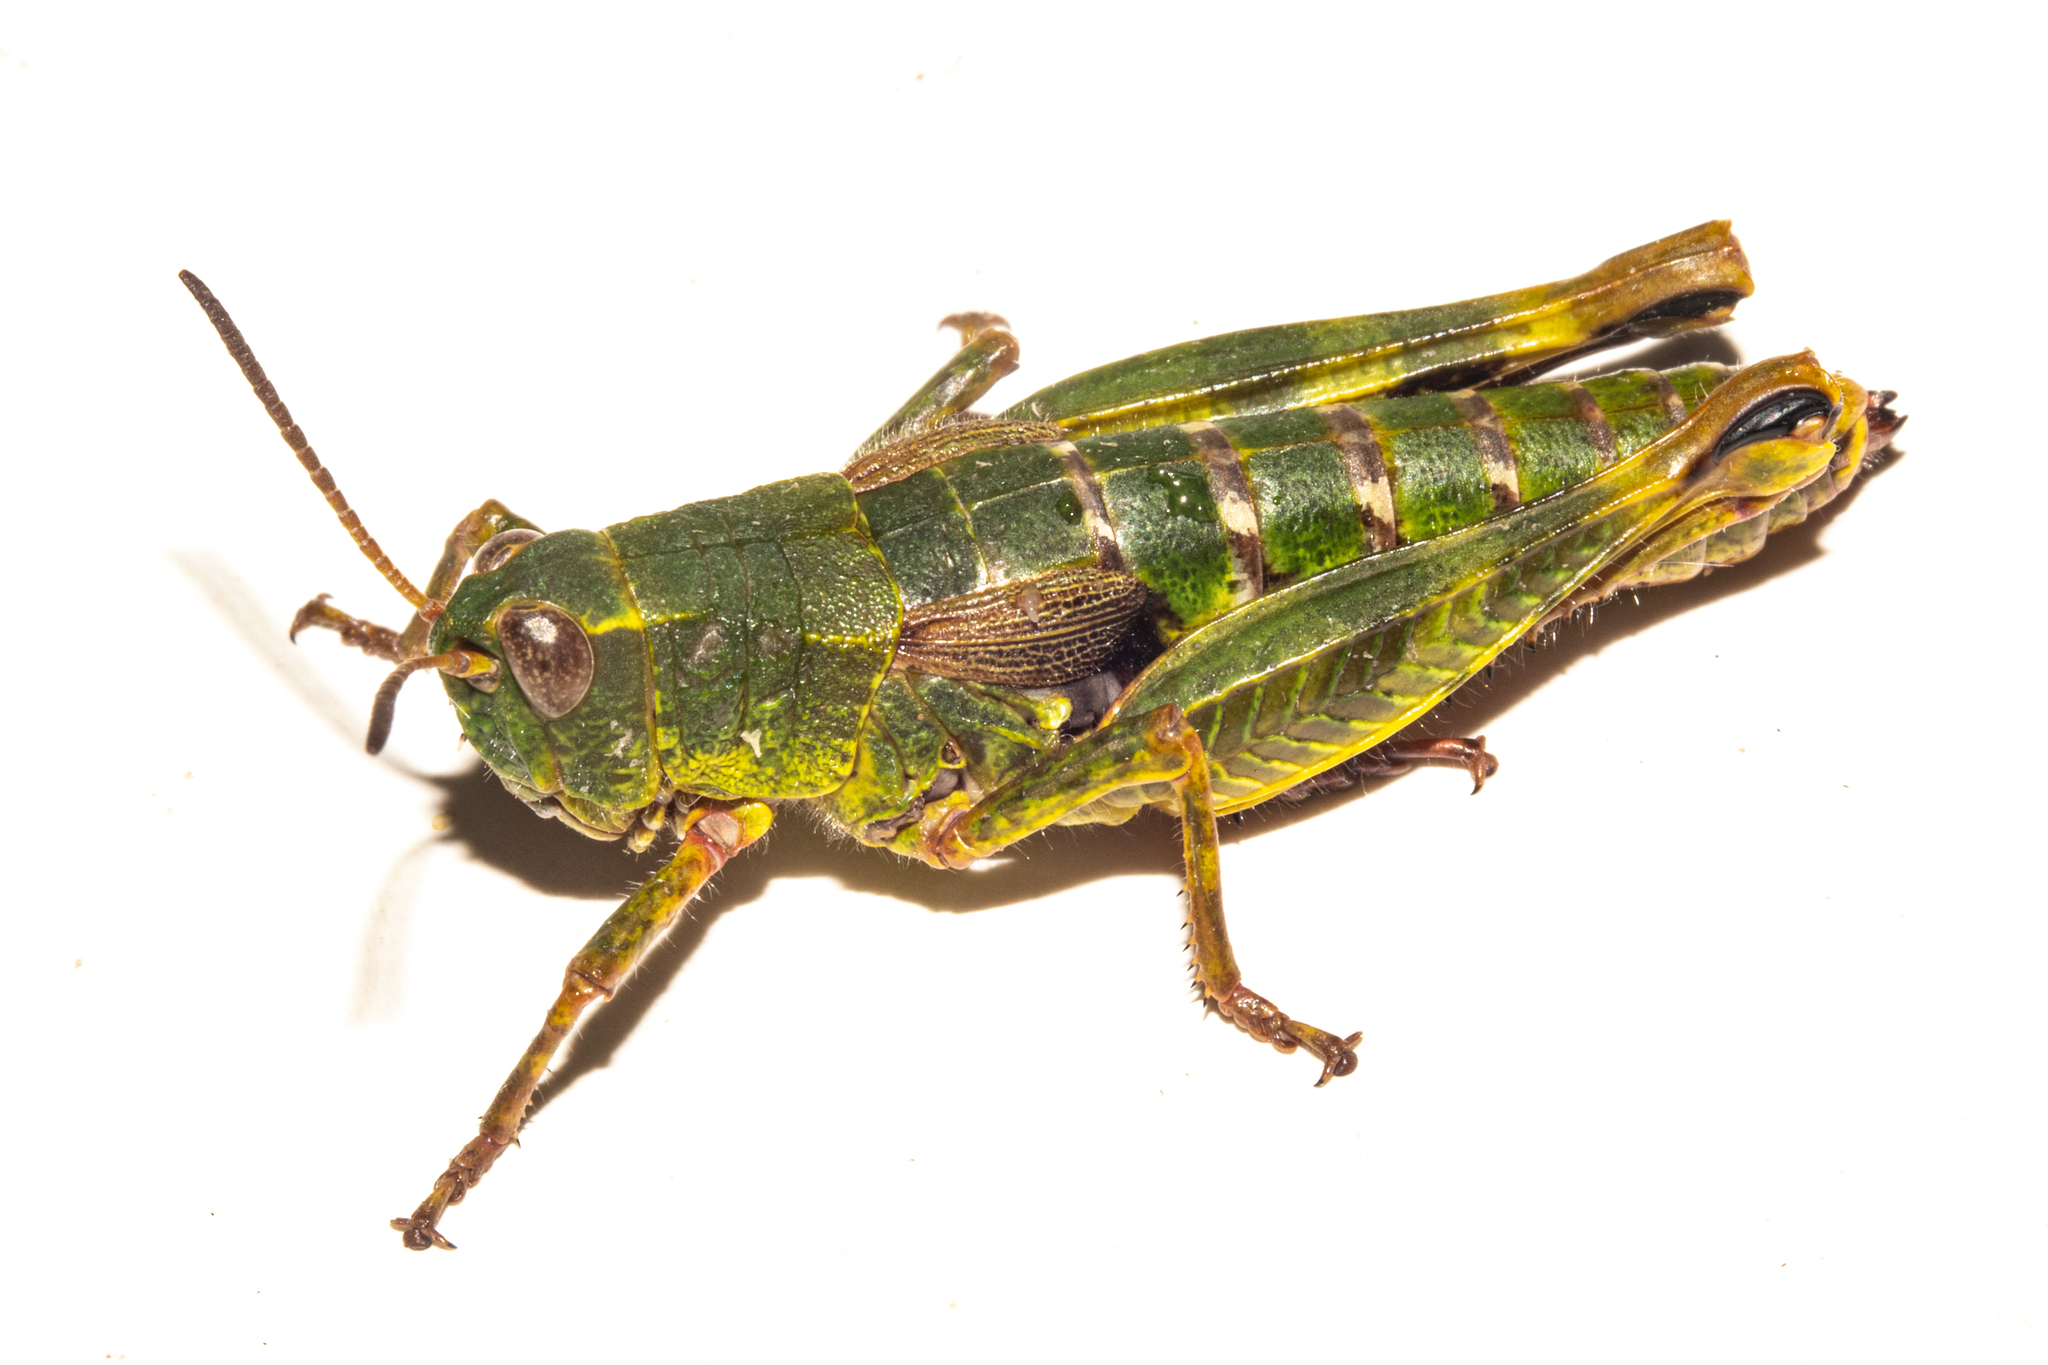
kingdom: Animalia
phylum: Arthropoda
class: Insecta
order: Orthoptera
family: Acrididae
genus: Sigaus
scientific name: Sigaus australis
